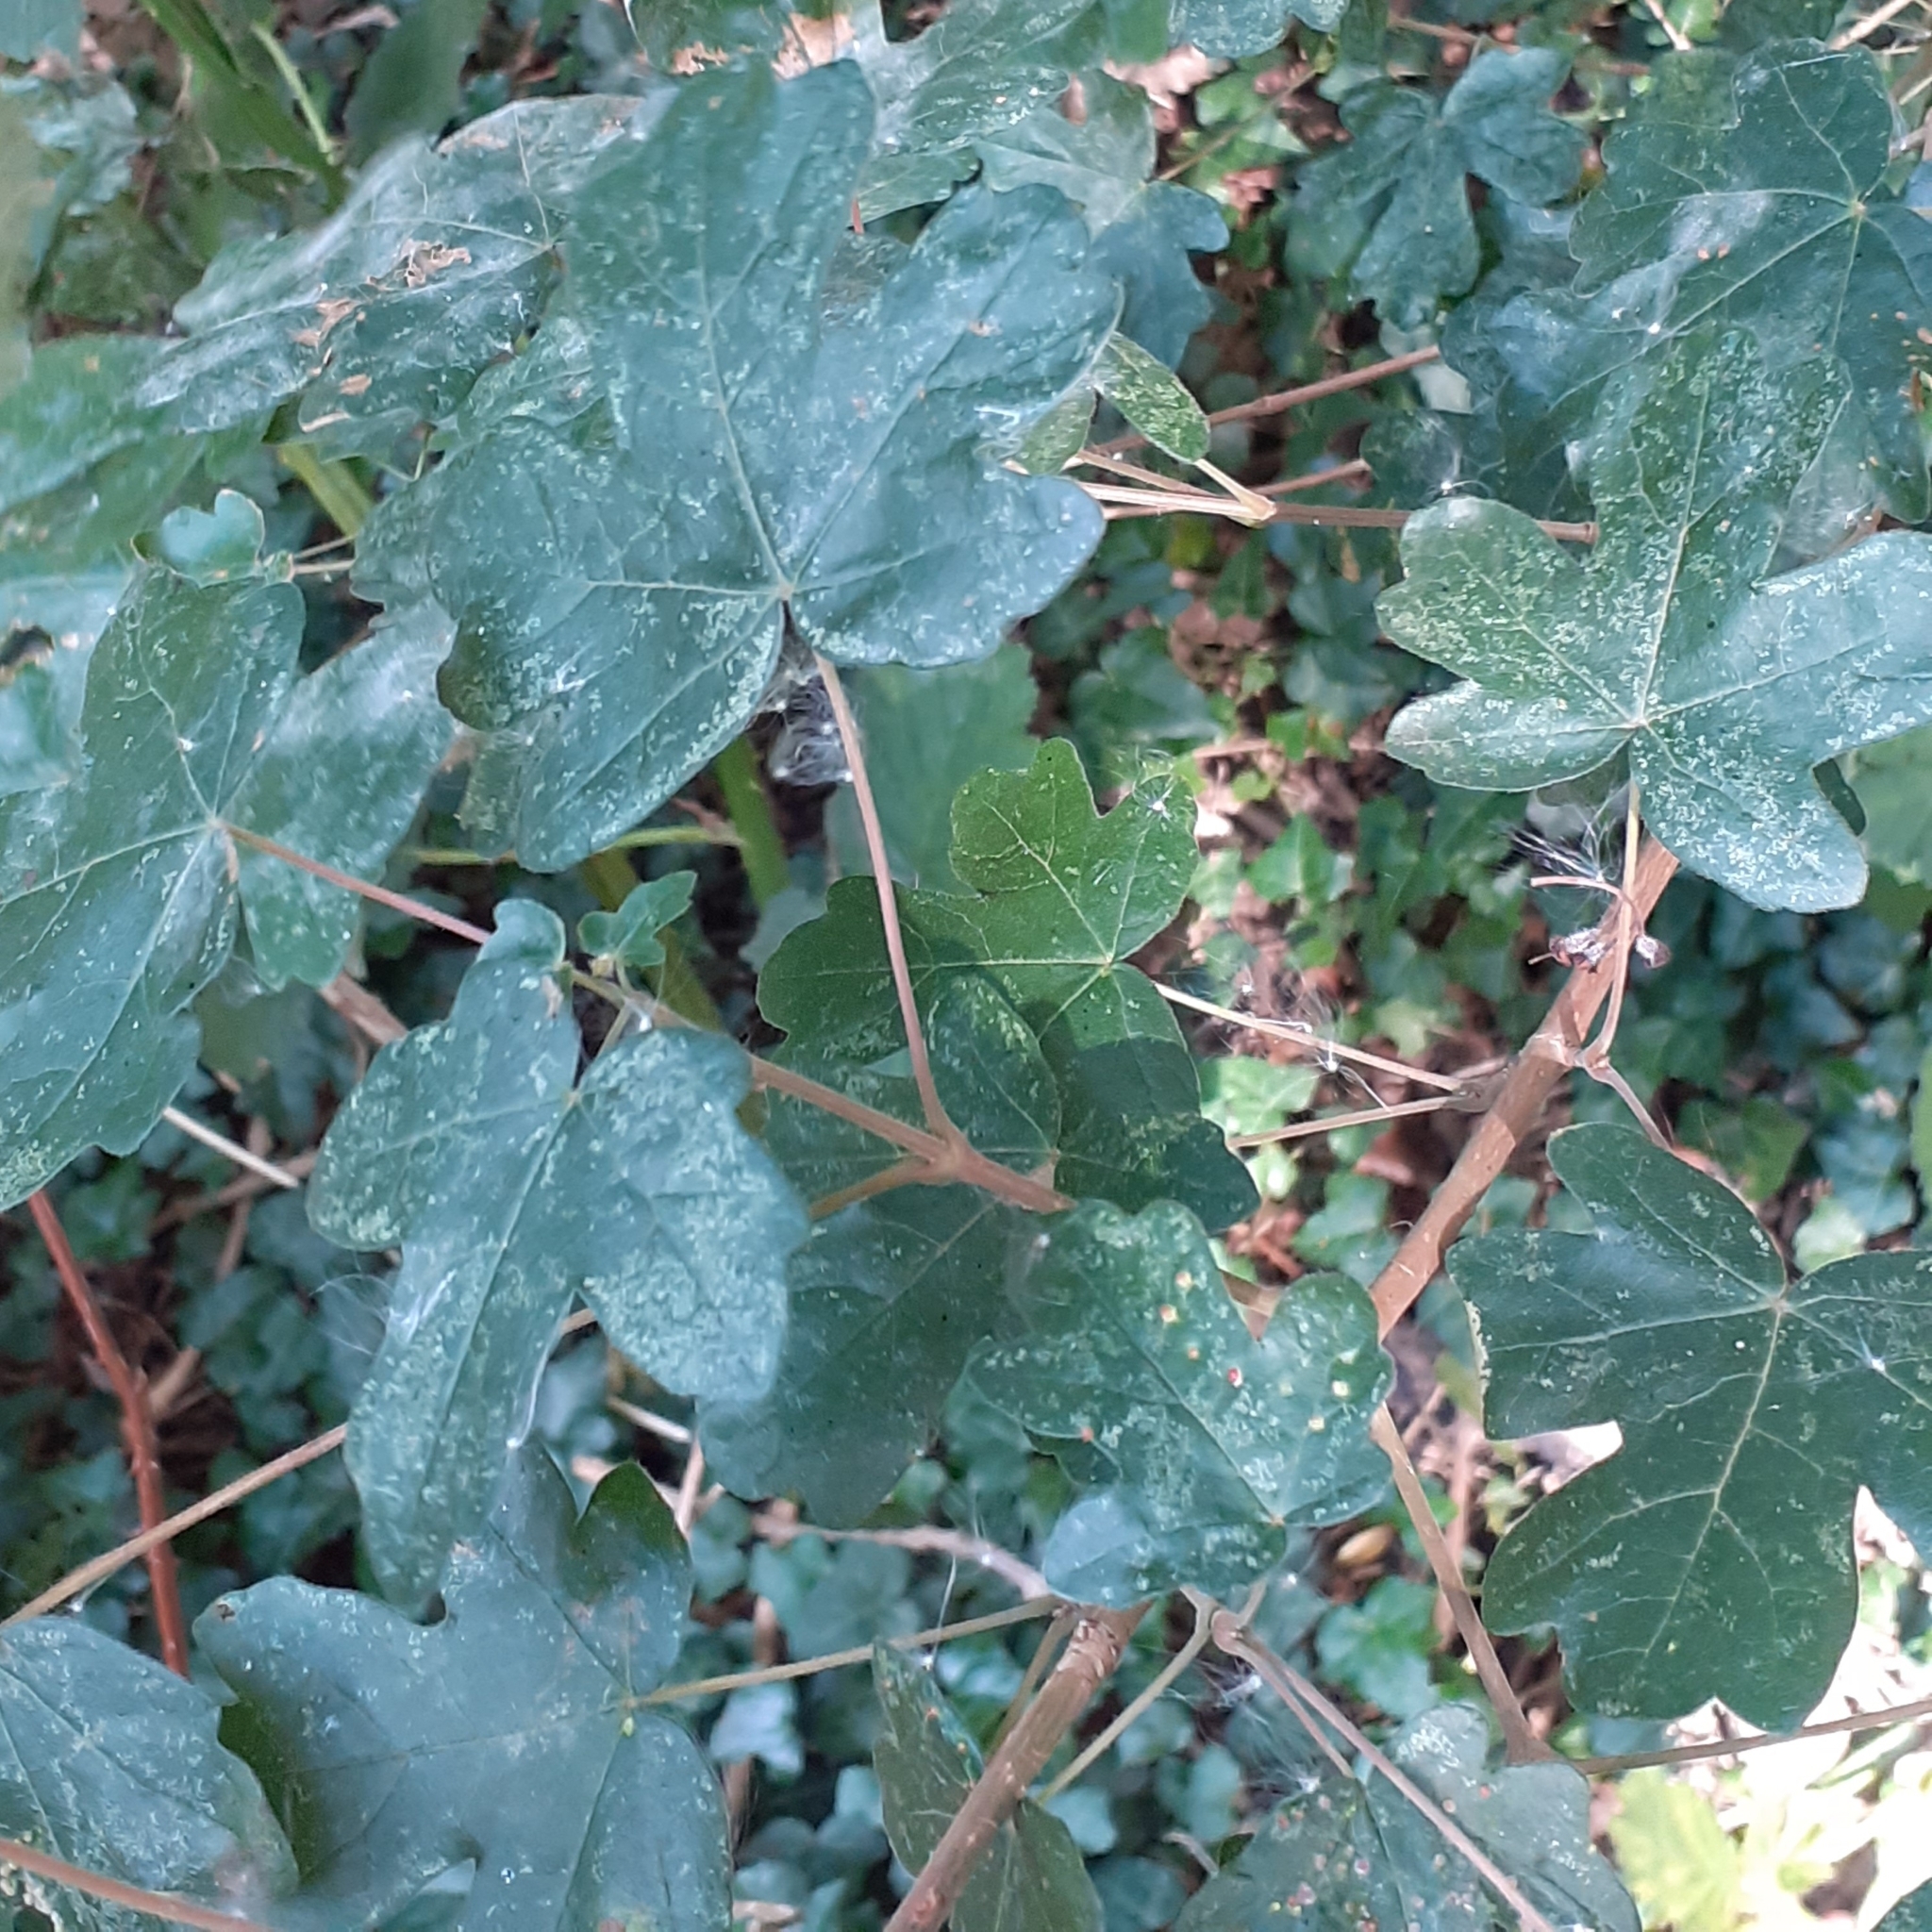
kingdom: Plantae
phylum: Tracheophyta
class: Magnoliopsida
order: Sapindales
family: Sapindaceae
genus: Acer
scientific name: Acer campestre
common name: Field maple
